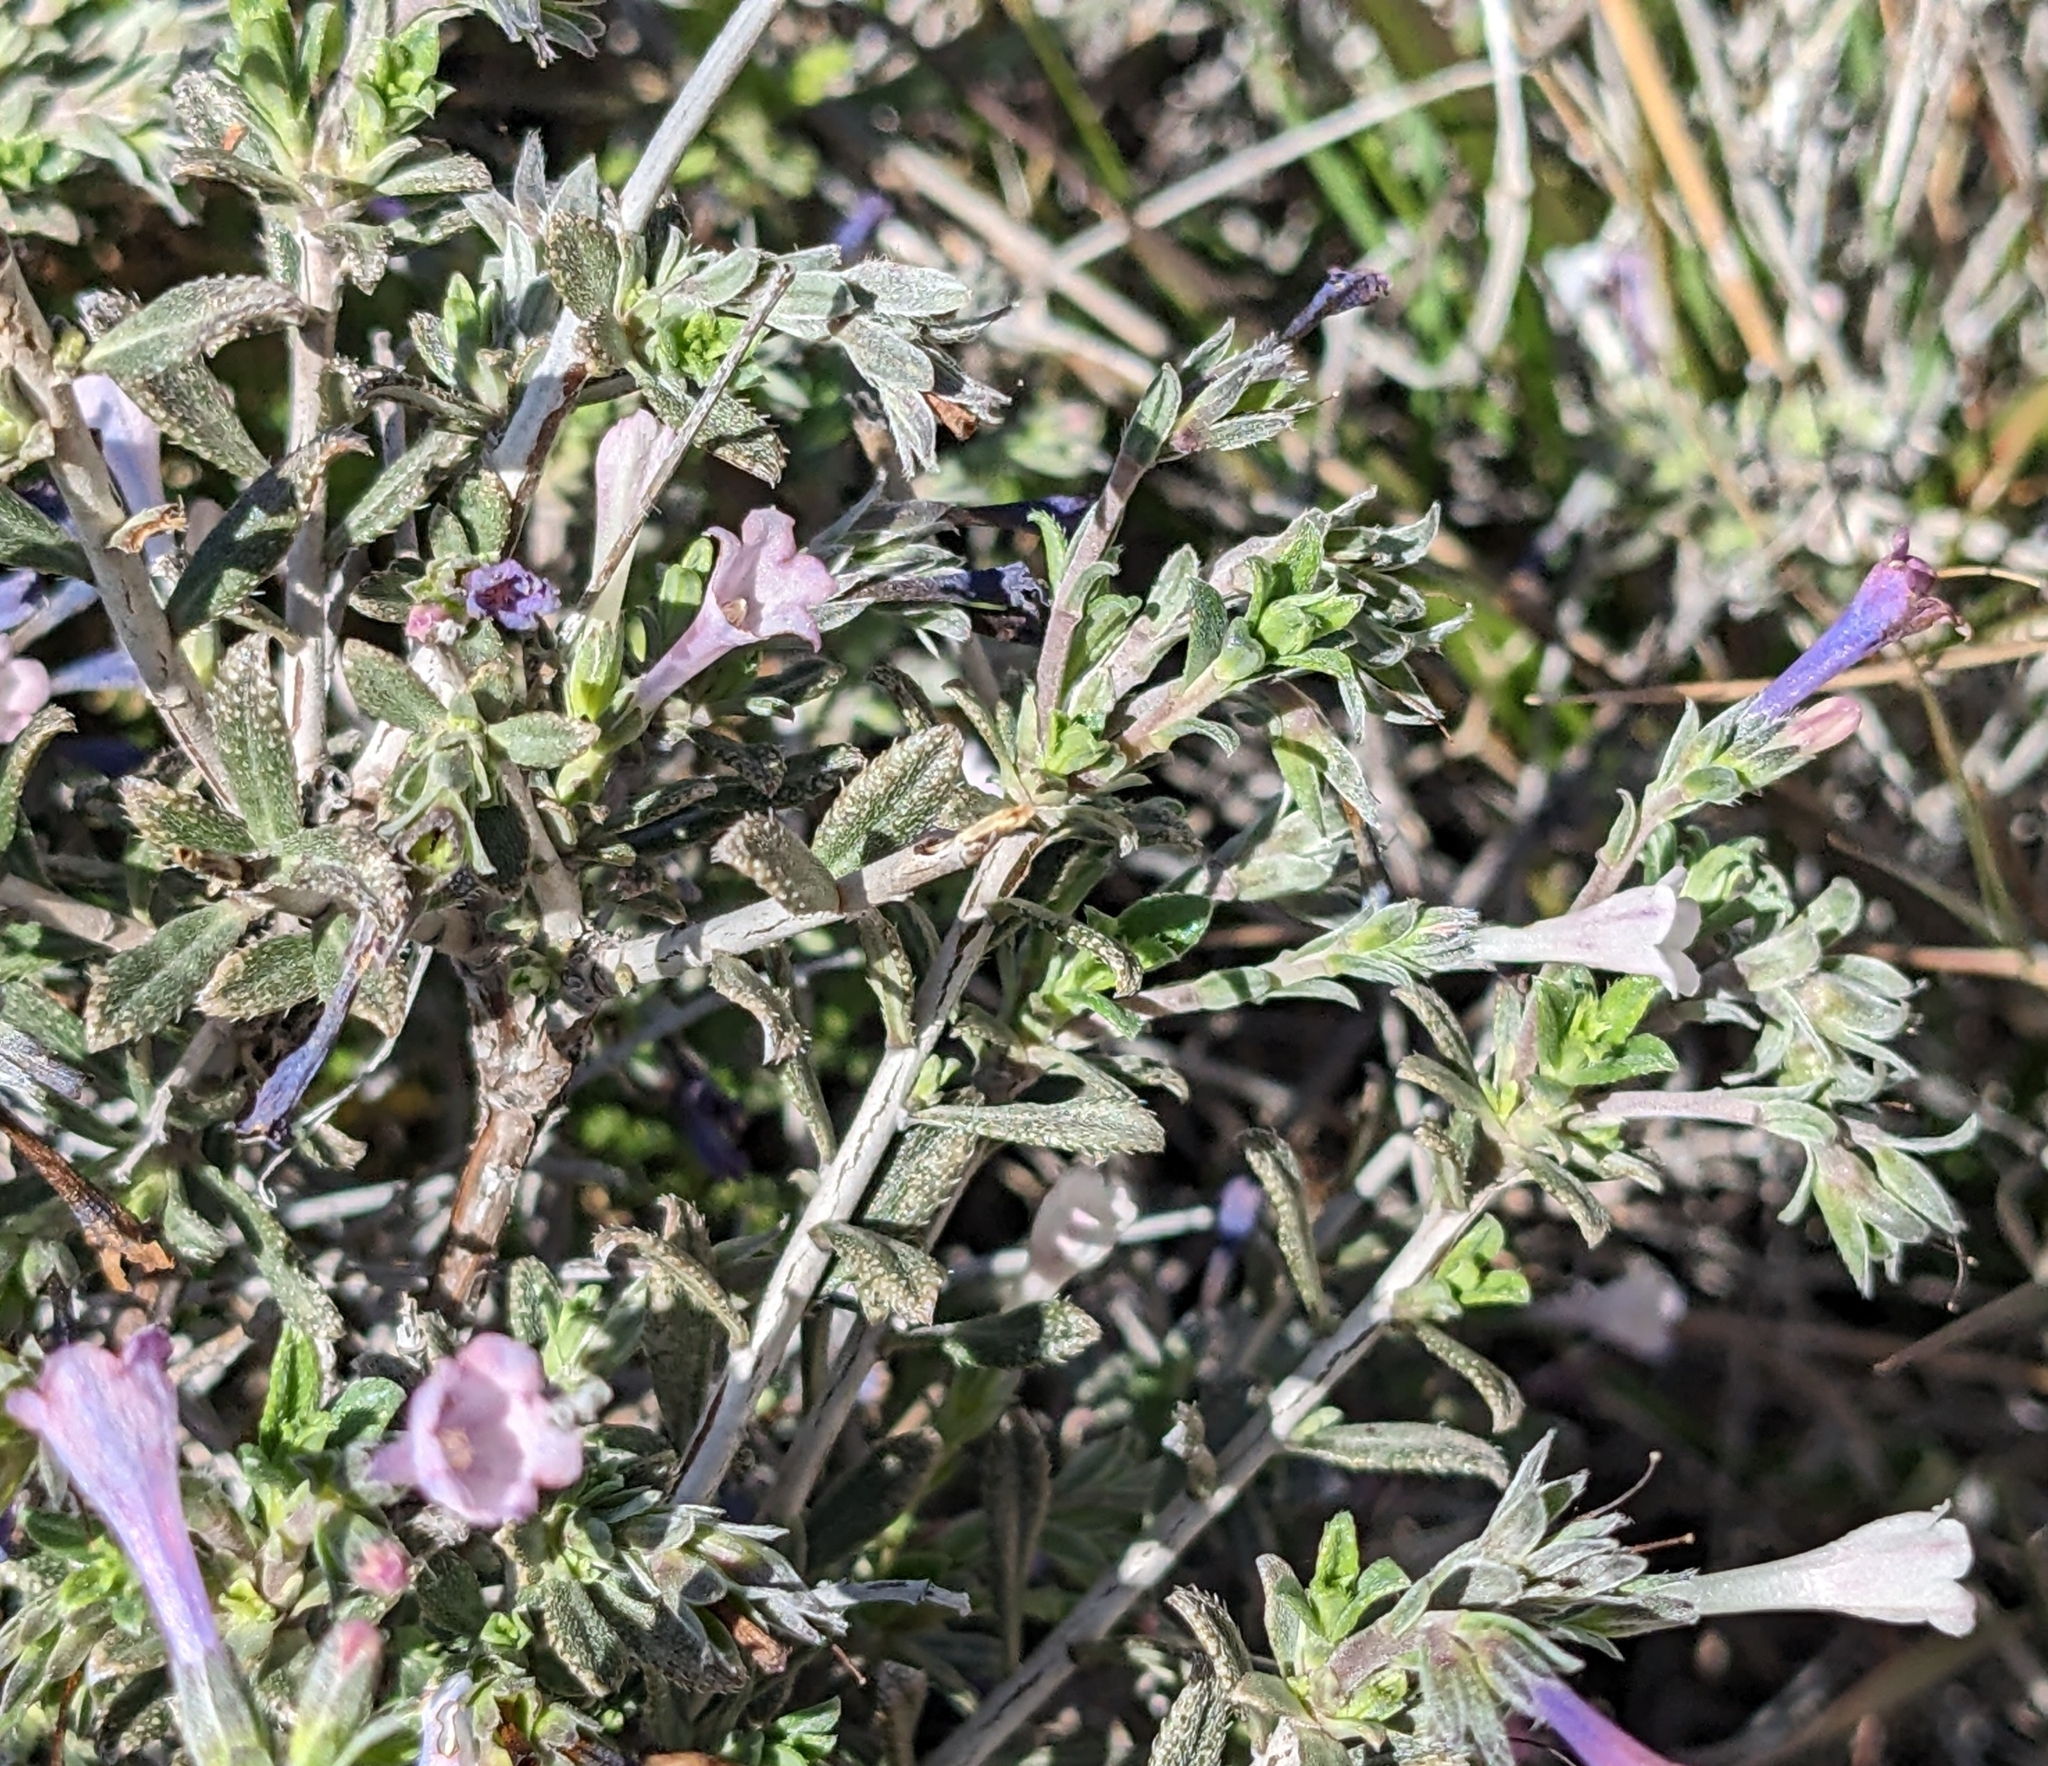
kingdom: Plantae
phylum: Tracheophyta
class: Magnoliopsida
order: Boraginales
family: Boraginaceae
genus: Lithodora
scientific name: Lithodora hispidula
